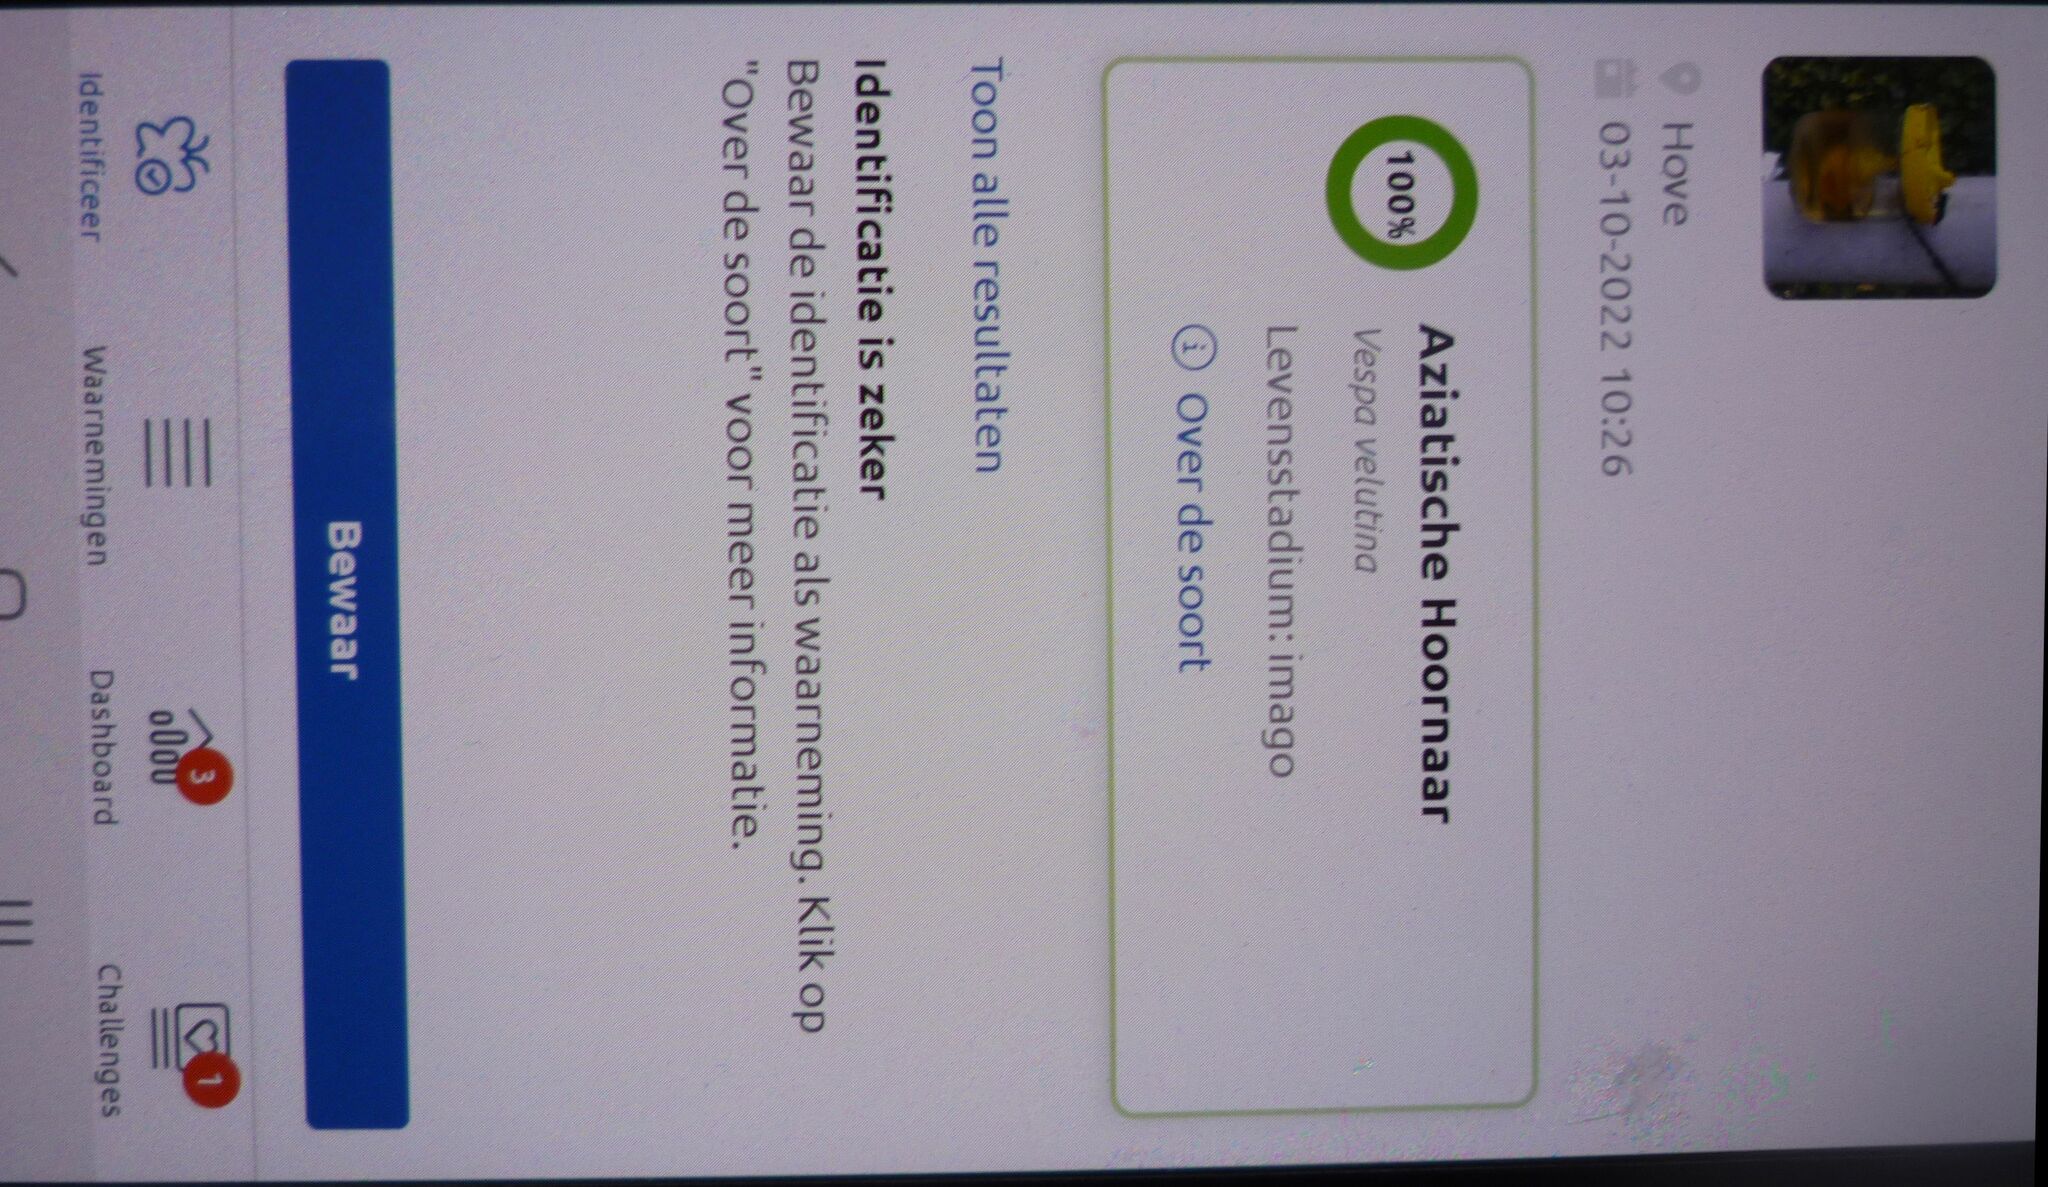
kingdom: Animalia
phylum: Arthropoda
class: Insecta
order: Hymenoptera
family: Vespidae
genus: Vespa
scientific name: Vespa velutina
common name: Asian hornet
